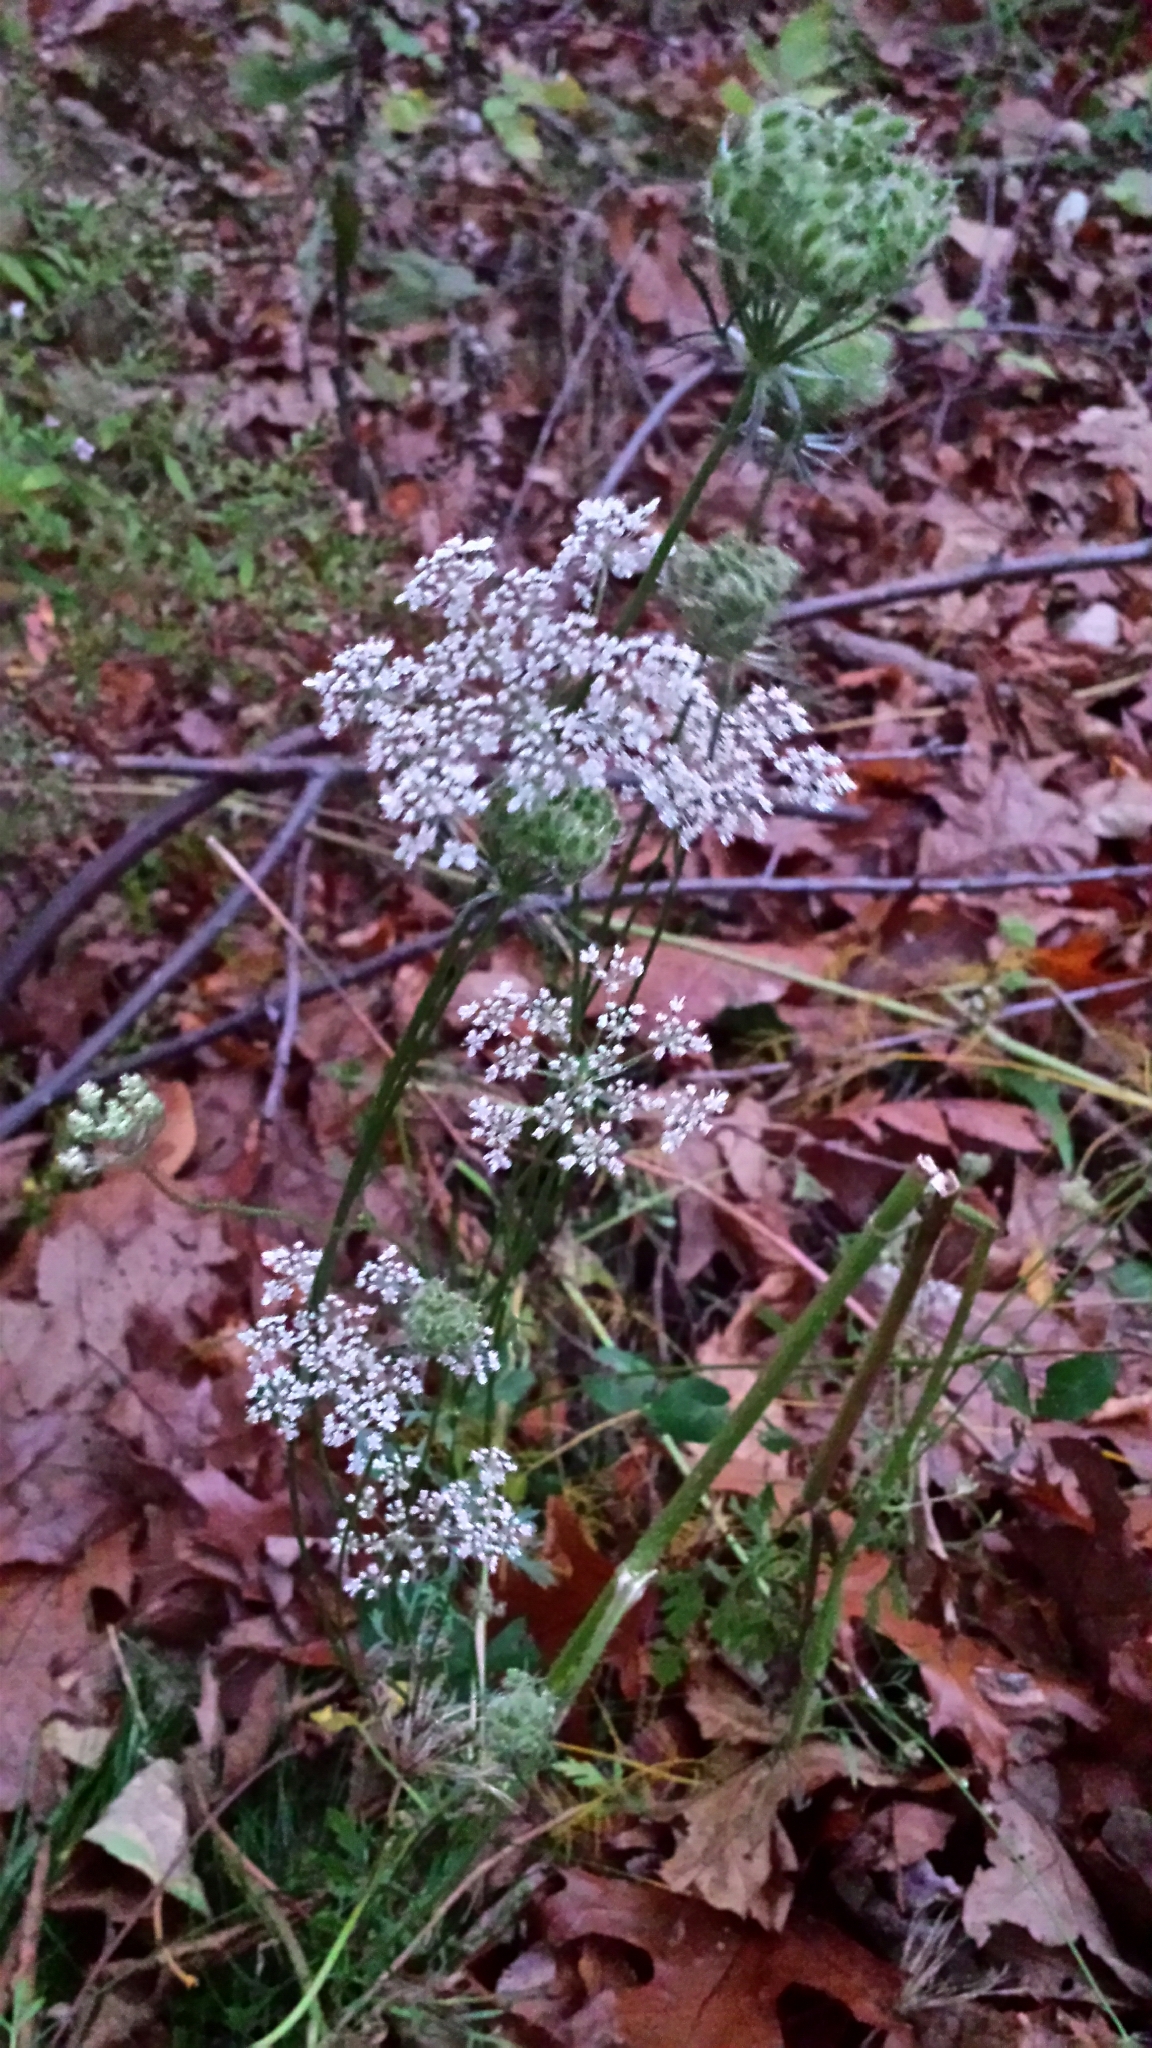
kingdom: Plantae
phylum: Tracheophyta
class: Magnoliopsida
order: Apiales
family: Apiaceae
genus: Daucus
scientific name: Daucus carota
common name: Wild carrot
